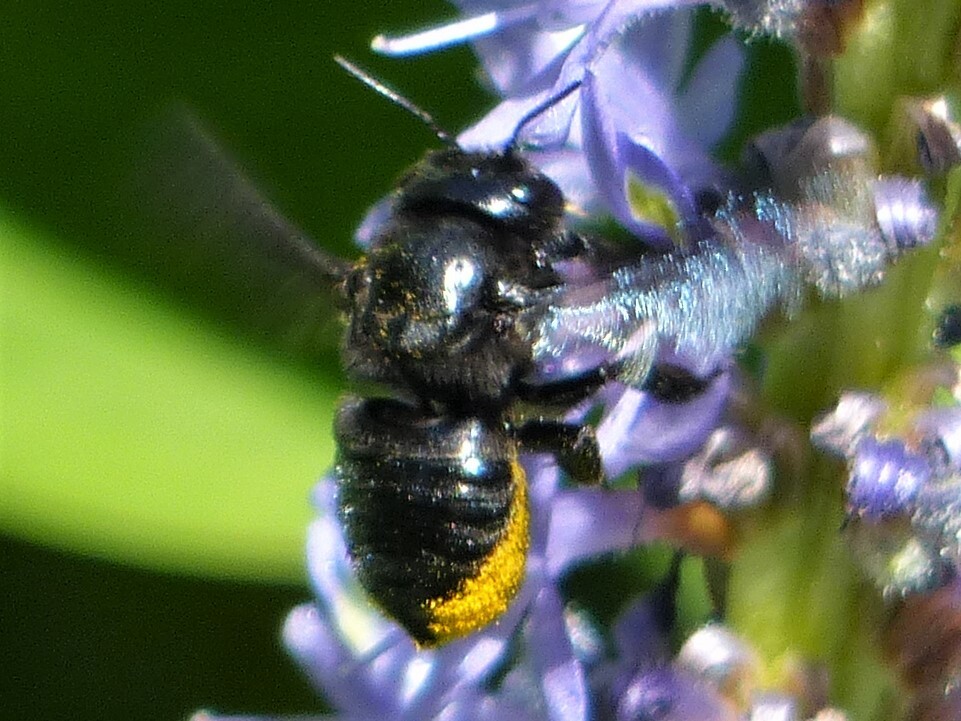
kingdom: Animalia
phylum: Arthropoda
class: Insecta
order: Hymenoptera
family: Megachilidae
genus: Megachile
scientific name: Megachile xylocopoides
